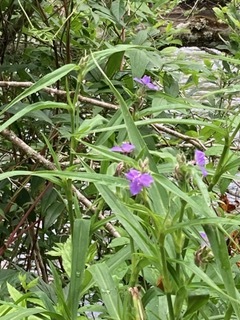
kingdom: Plantae
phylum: Tracheophyta
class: Liliopsida
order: Commelinales
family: Commelinaceae
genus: Tradescantia
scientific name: Tradescantia subaspera
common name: Wide-leaf spiderwort
